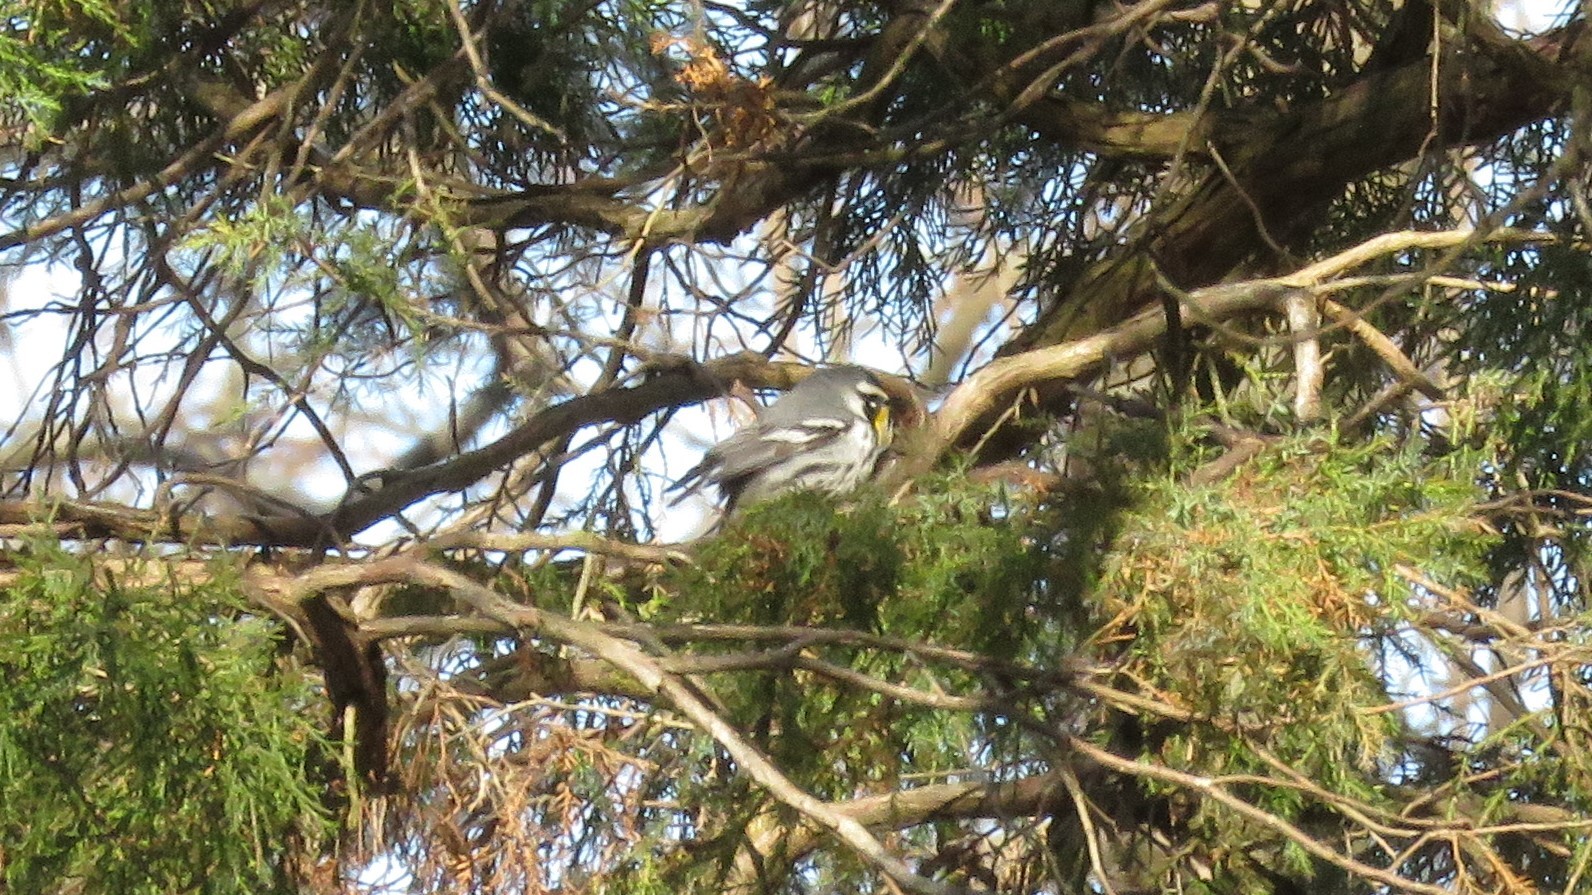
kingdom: Animalia
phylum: Chordata
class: Aves
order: Passeriformes
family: Parulidae
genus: Setophaga
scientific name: Setophaga dominica
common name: Yellow-throated warbler
